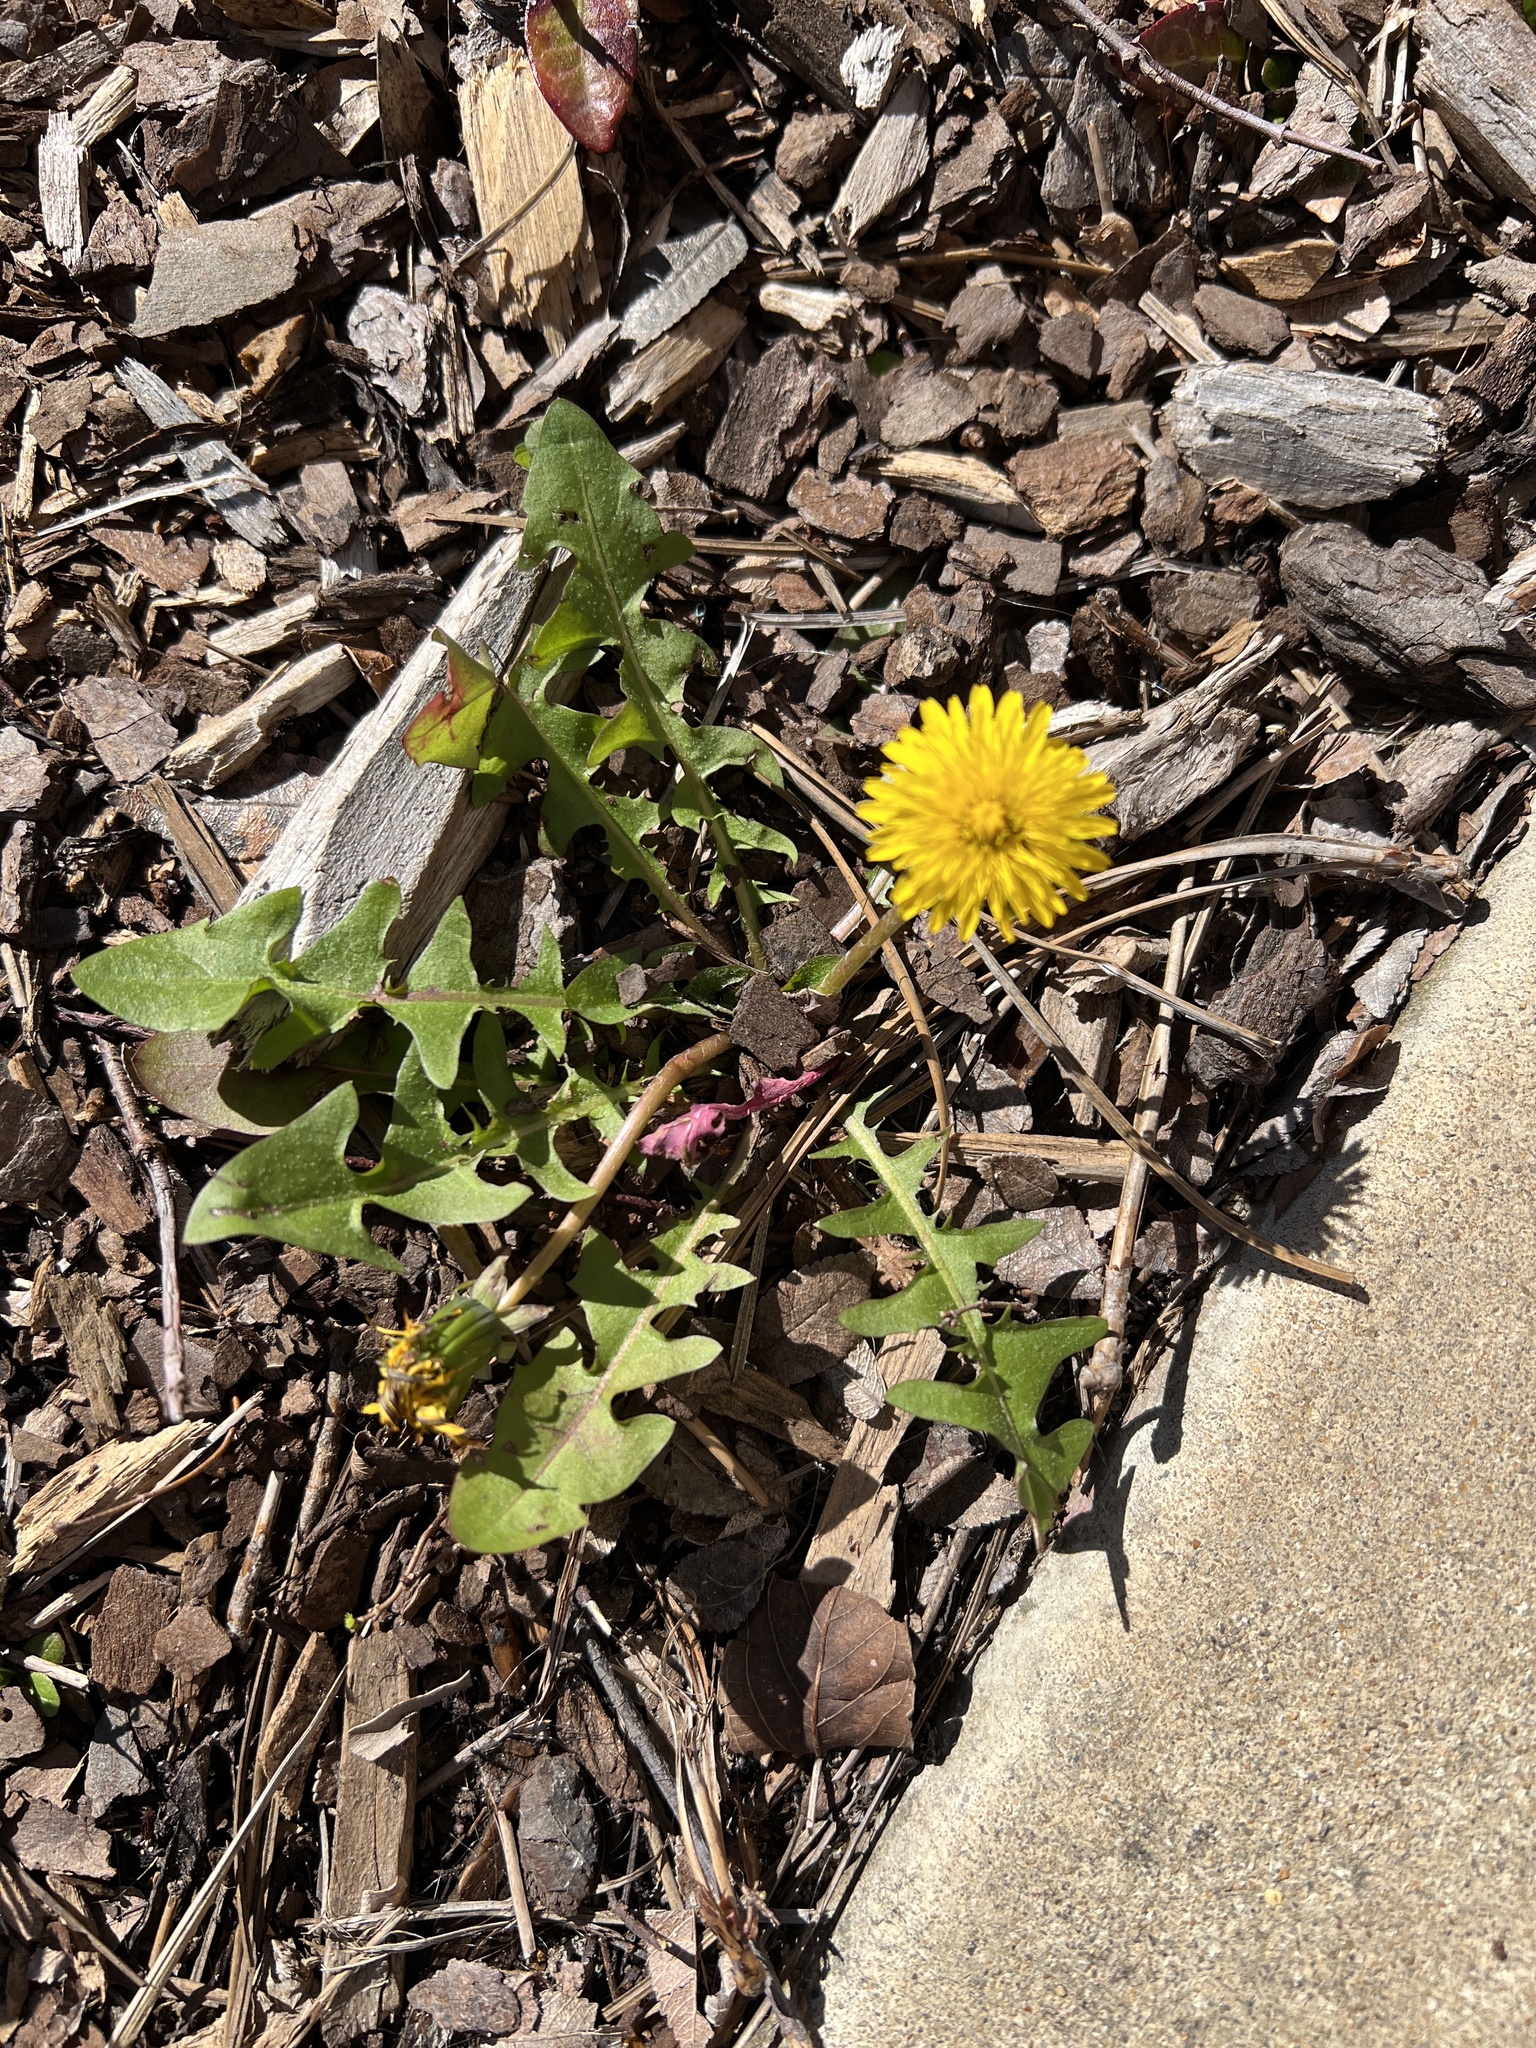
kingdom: Plantae
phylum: Tracheophyta
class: Magnoliopsida
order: Asterales
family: Asteraceae
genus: Taraxacum
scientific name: Taraxacum
